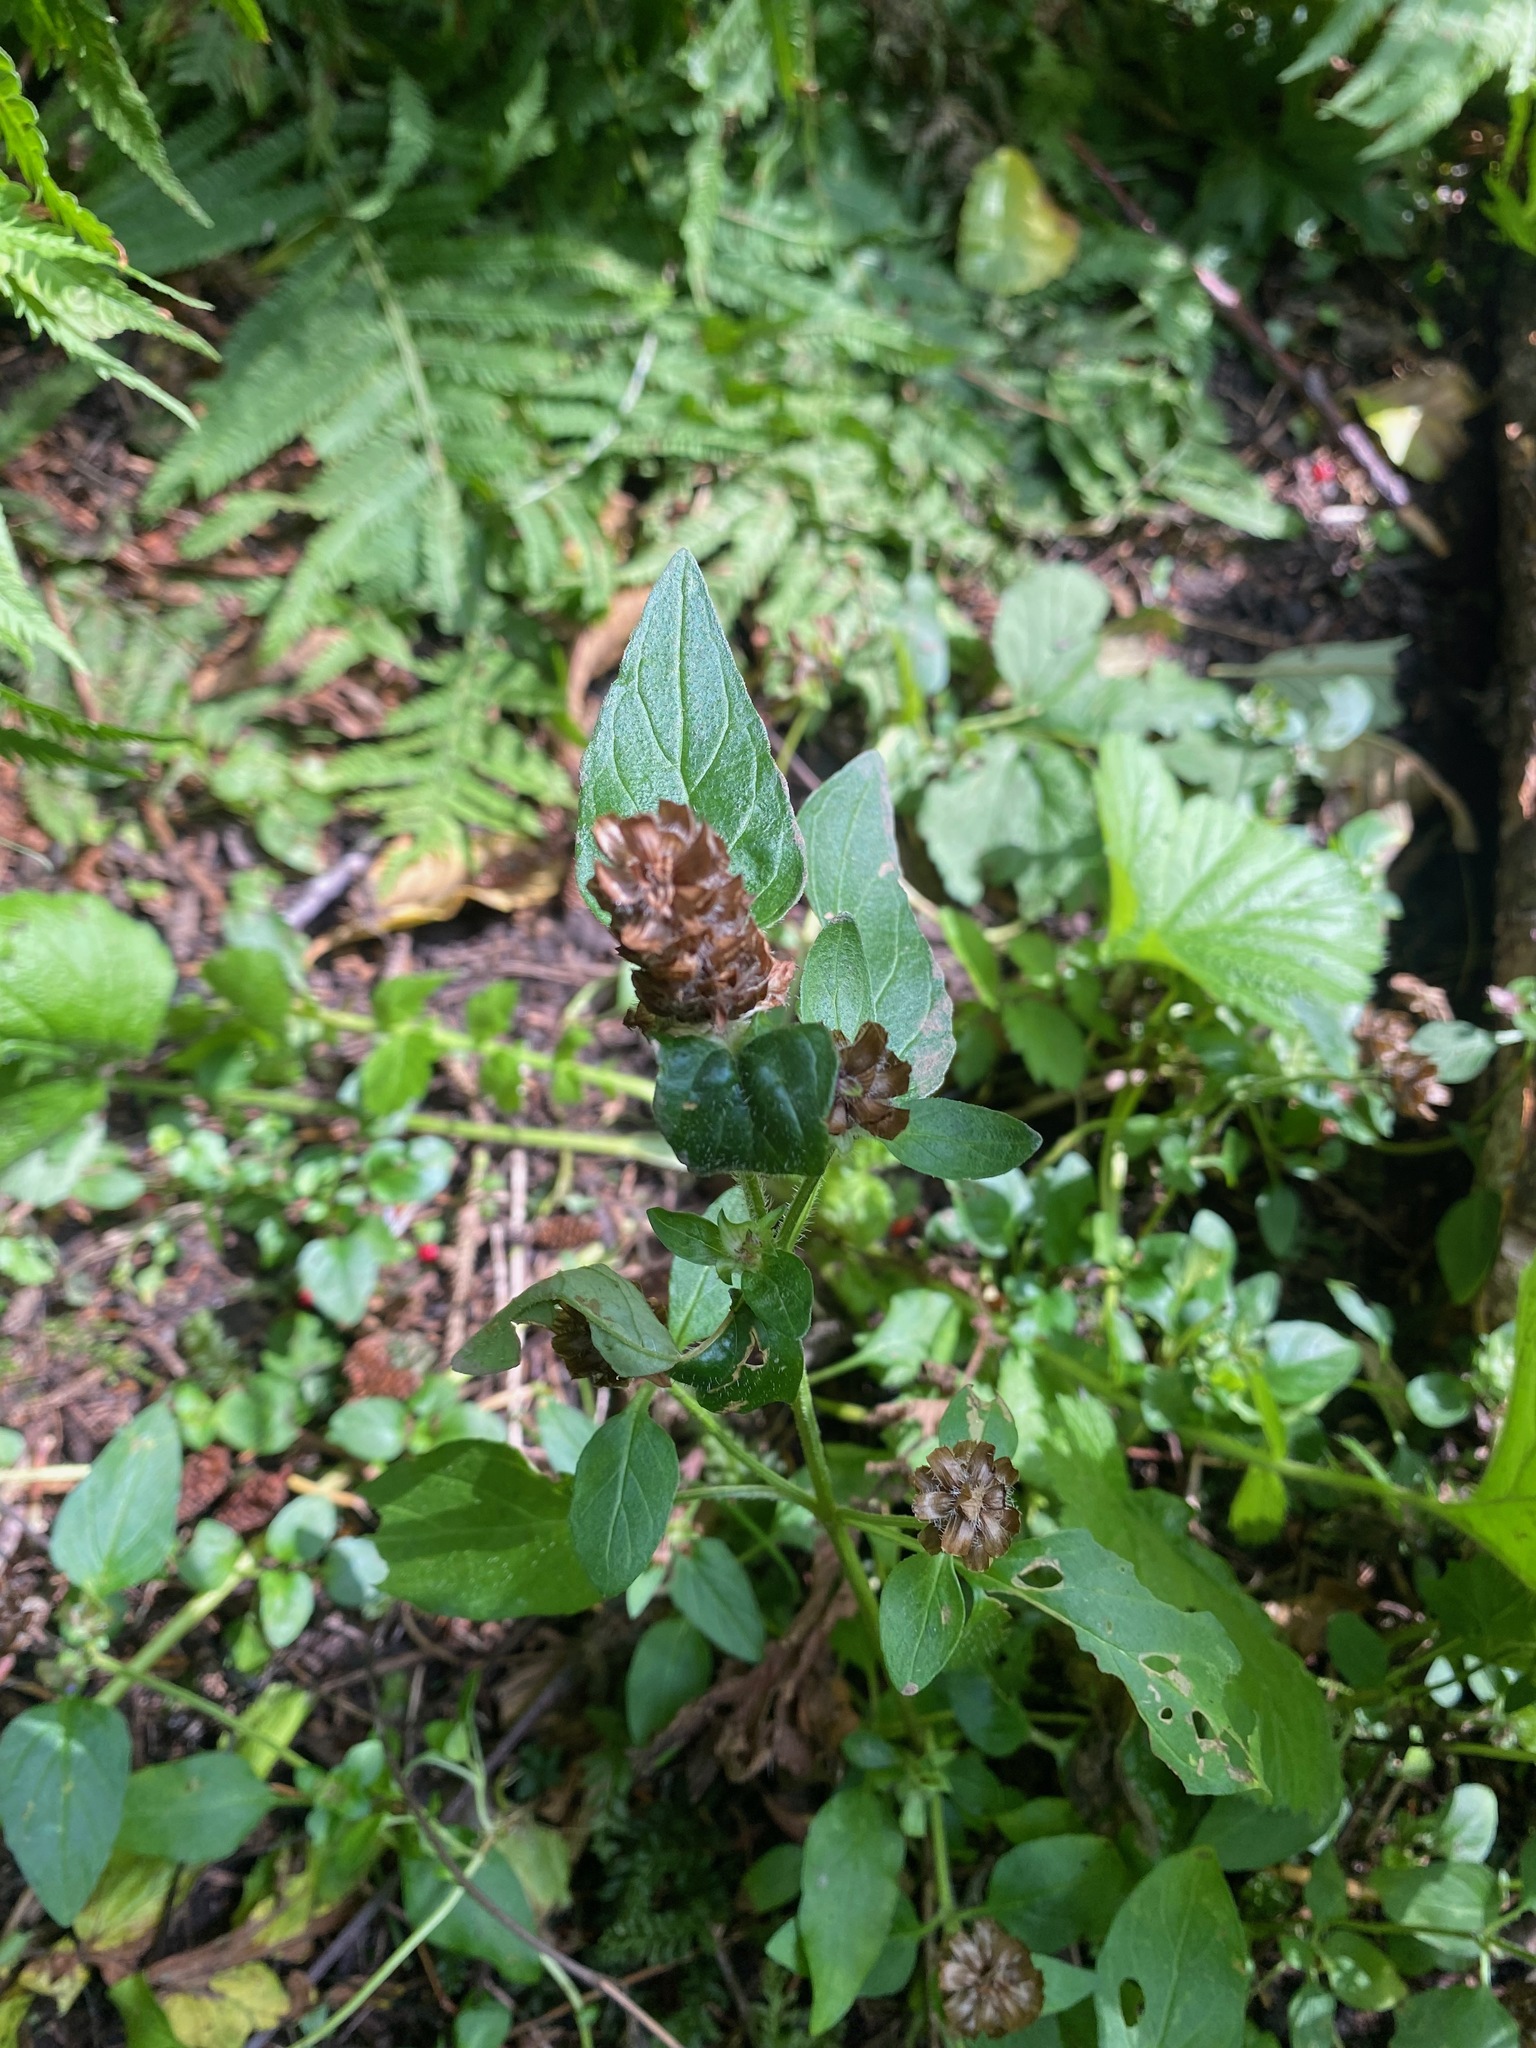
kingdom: Plantae
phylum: Tracheophyta
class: Magnoliopsida
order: Lamiales
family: Lamiaceae
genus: Prunella
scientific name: Prunella vulgaris
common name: Heal-all
